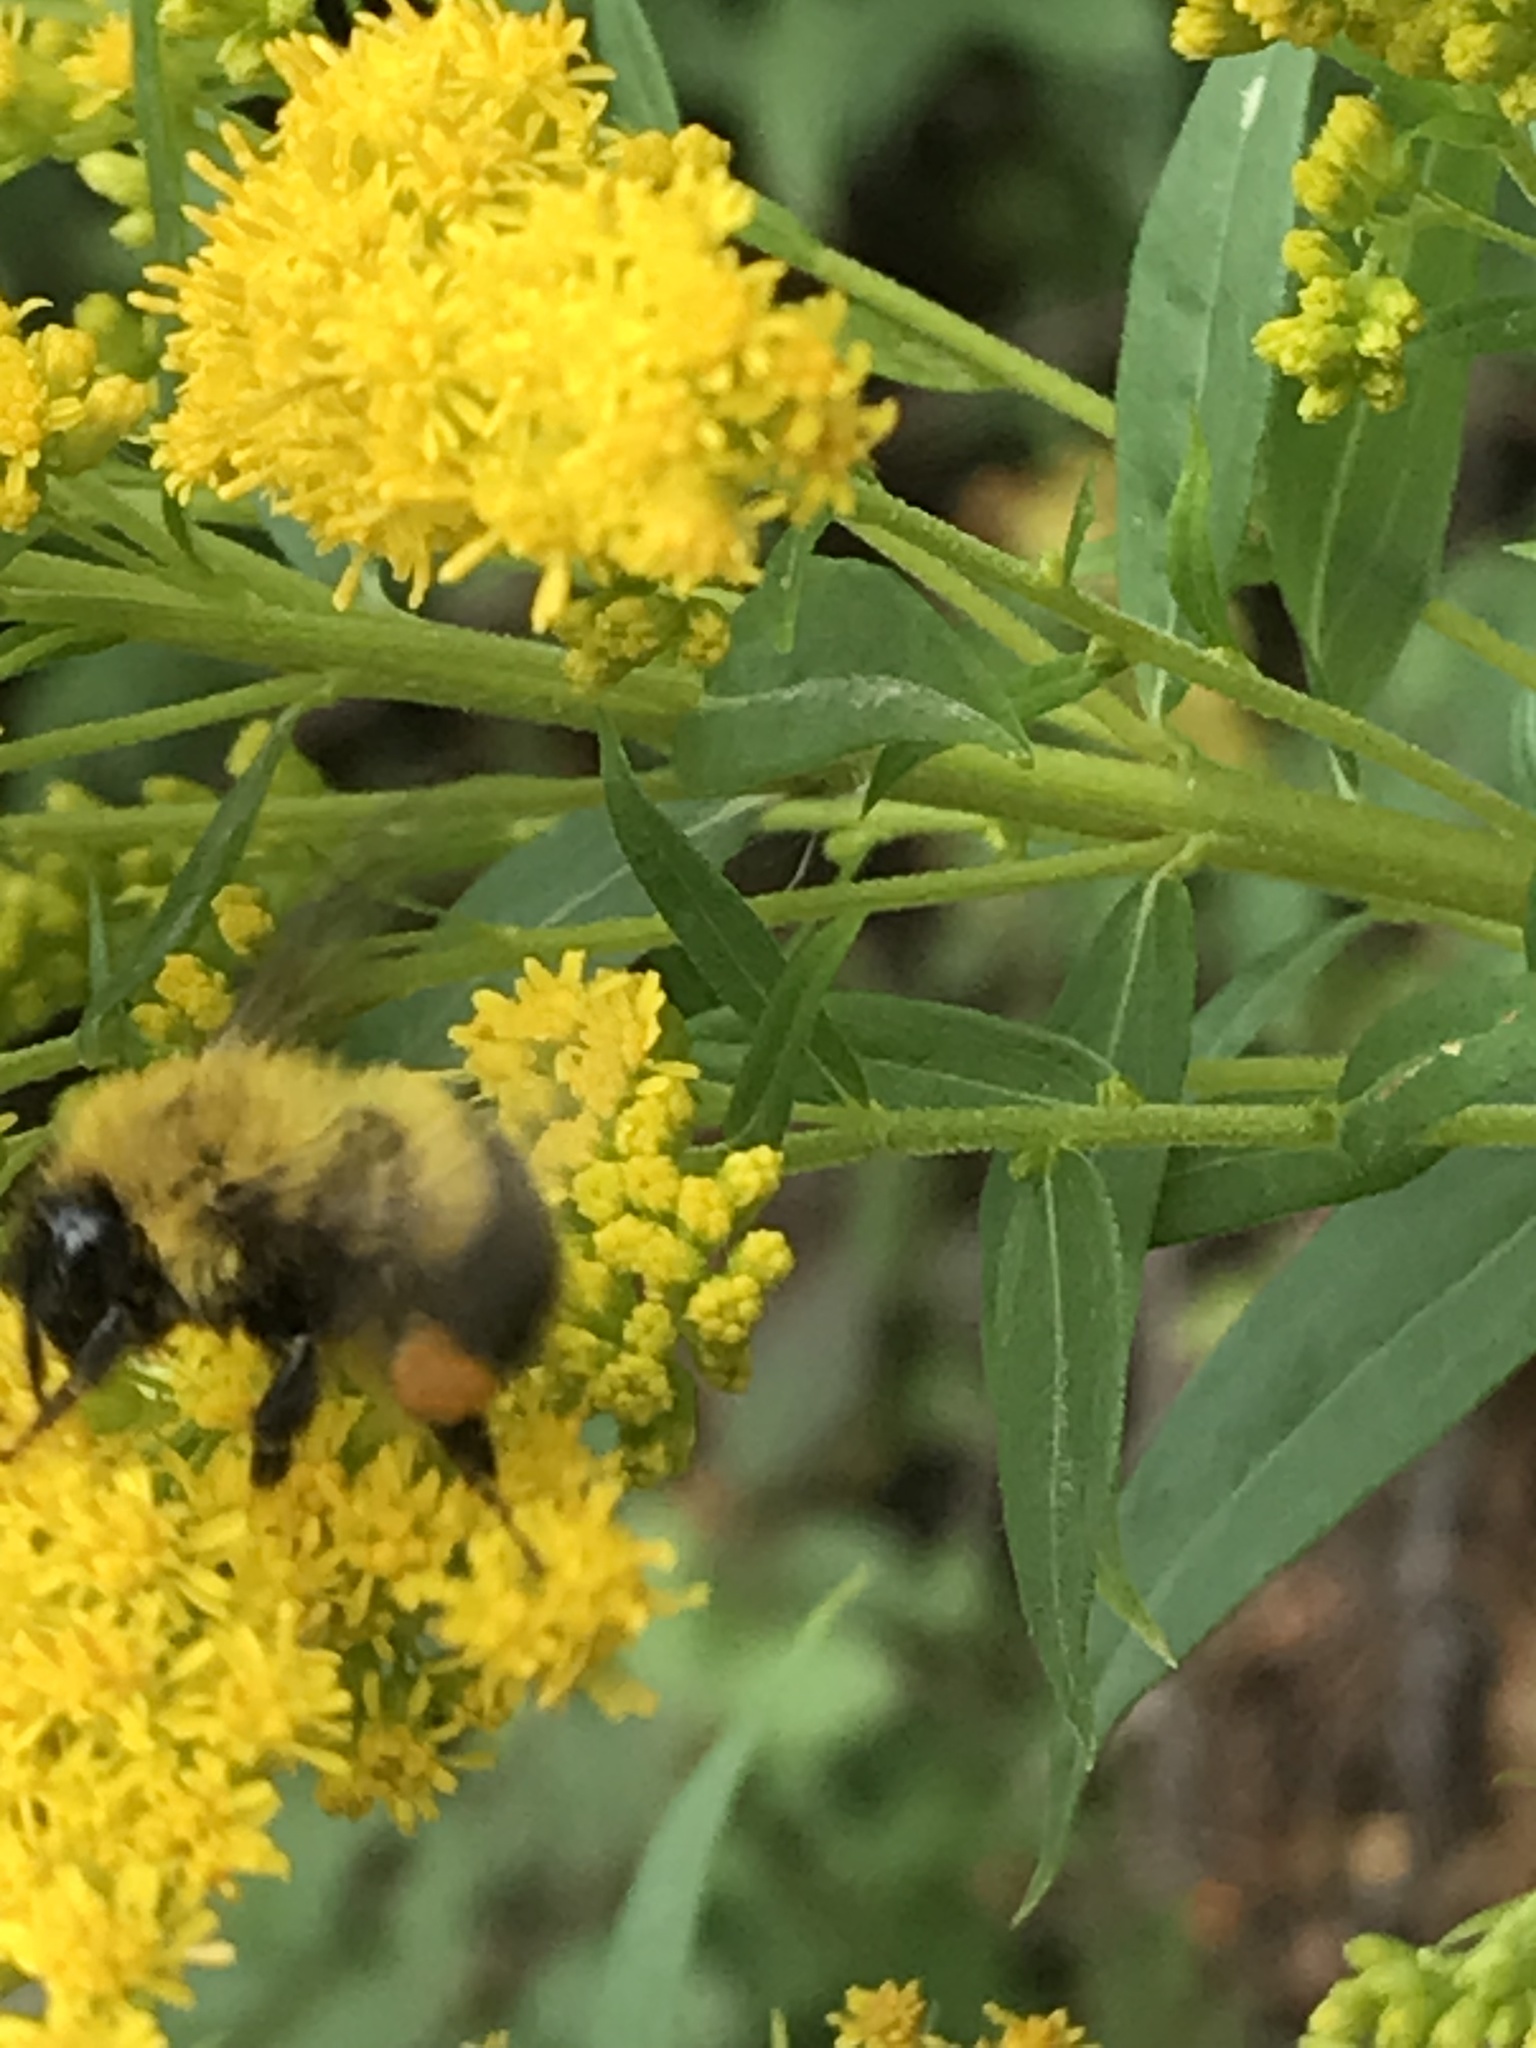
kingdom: Animalia
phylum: Arthropoda
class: Insecta
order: Hymenoptera
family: Apidae
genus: Bombus
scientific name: Bombus perplexus
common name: Confusing bumble bee
